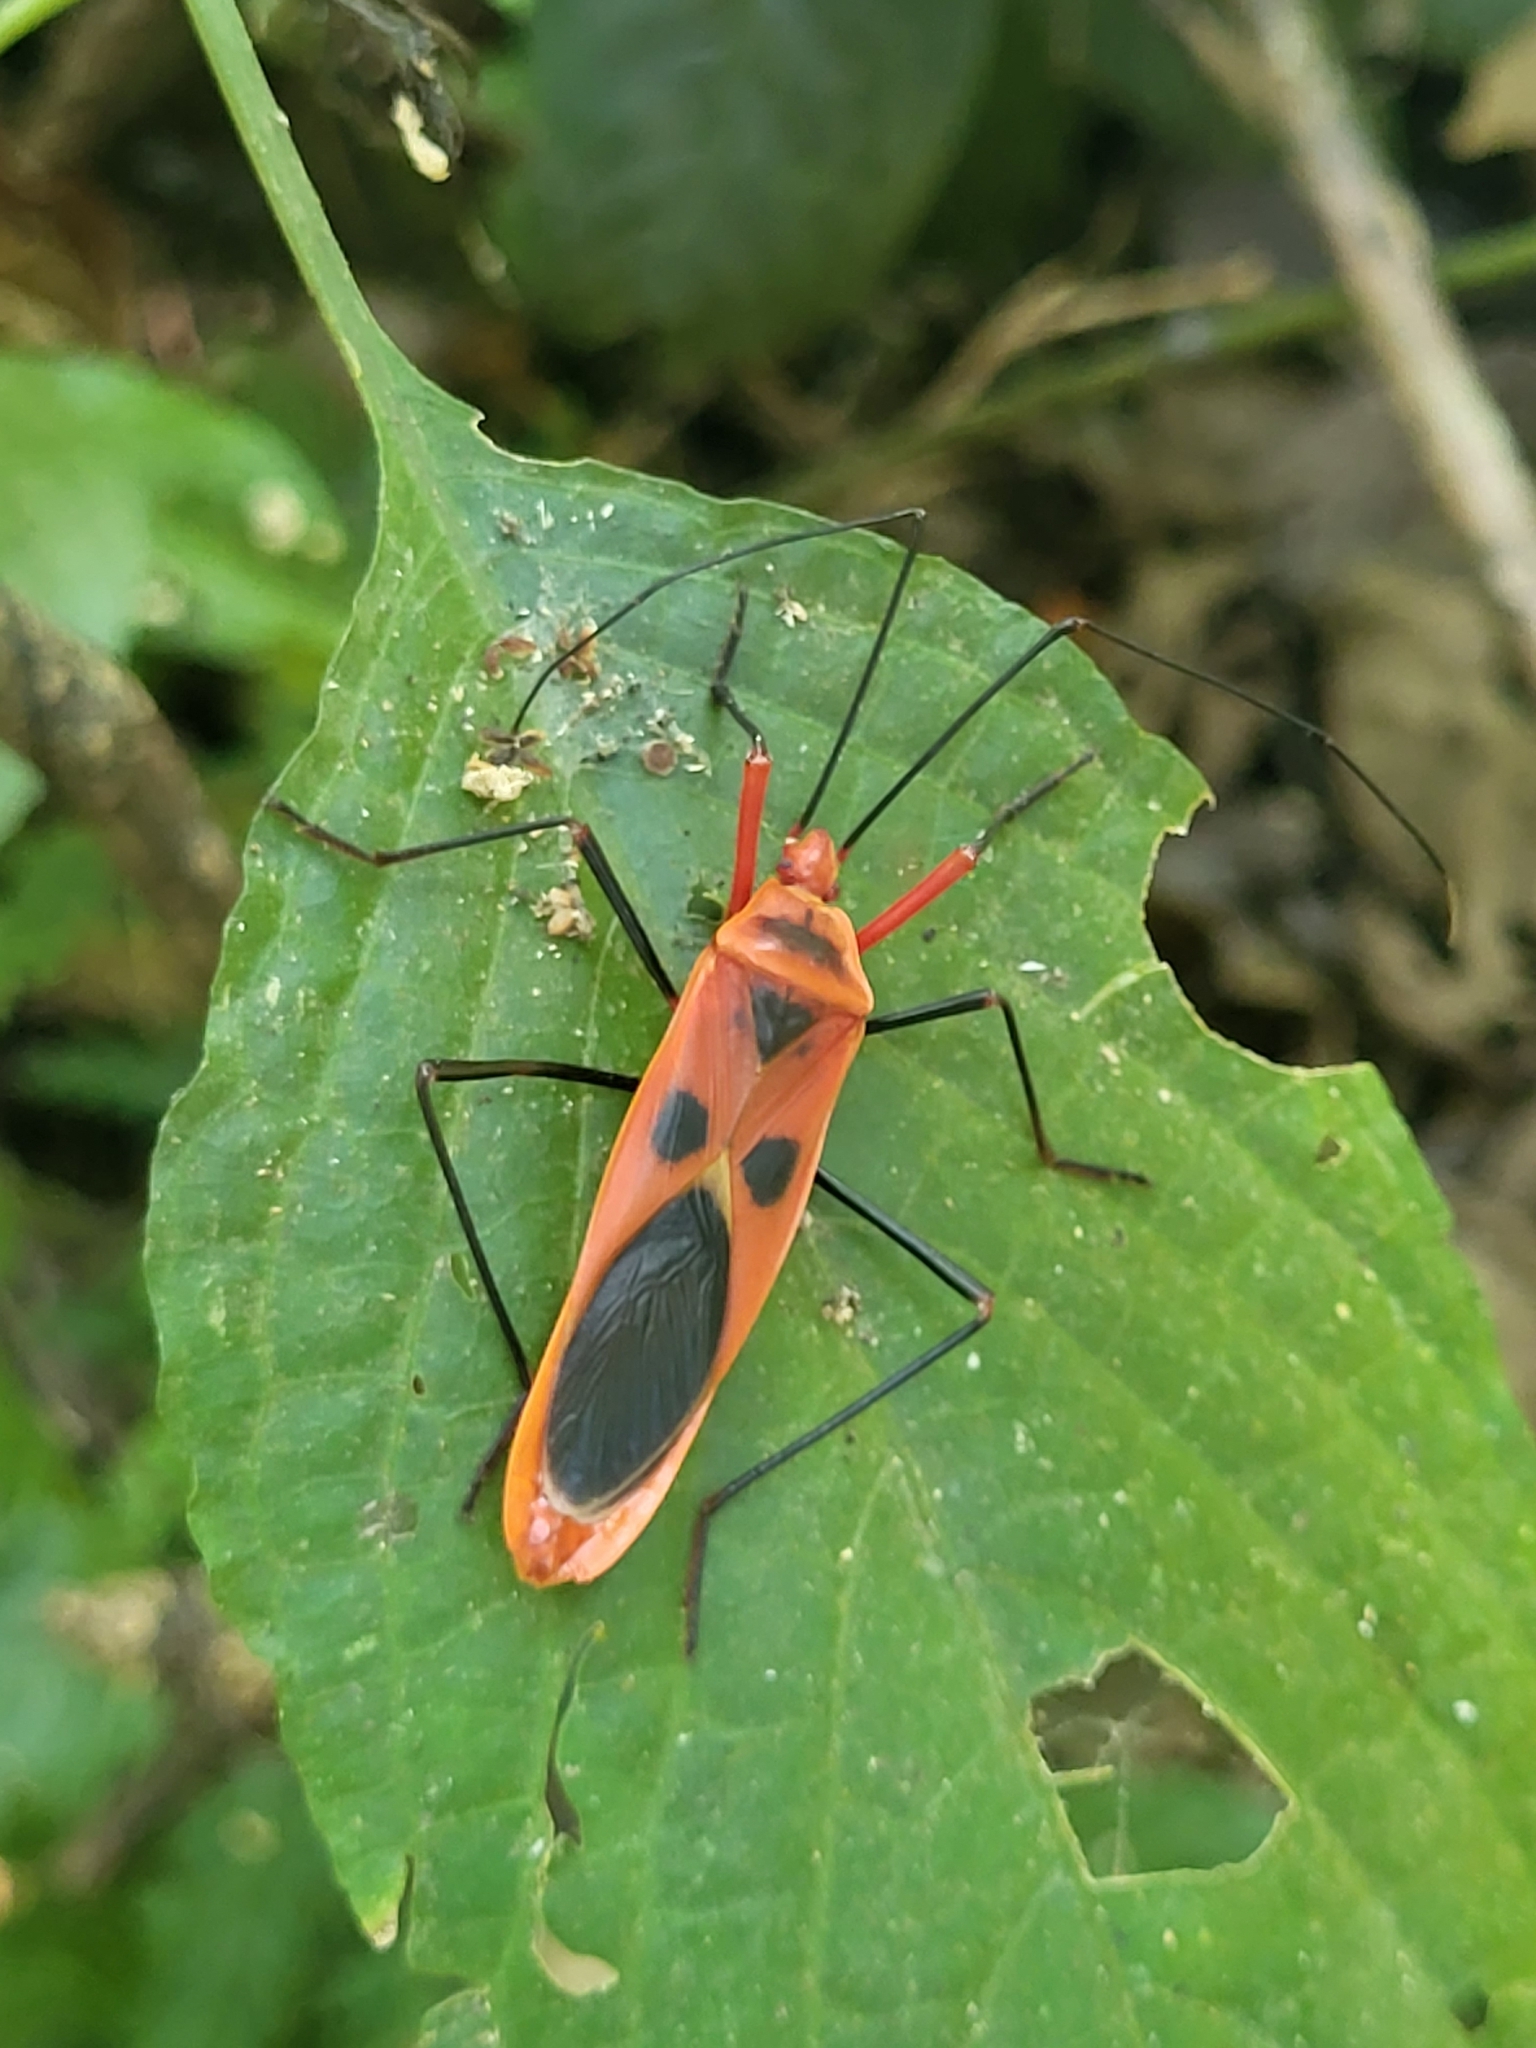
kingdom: Animalia
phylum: Arthropoda
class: Insecta
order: Hemiptera
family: Largidae
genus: Macrocheraia
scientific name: Macrocheraia grandis
